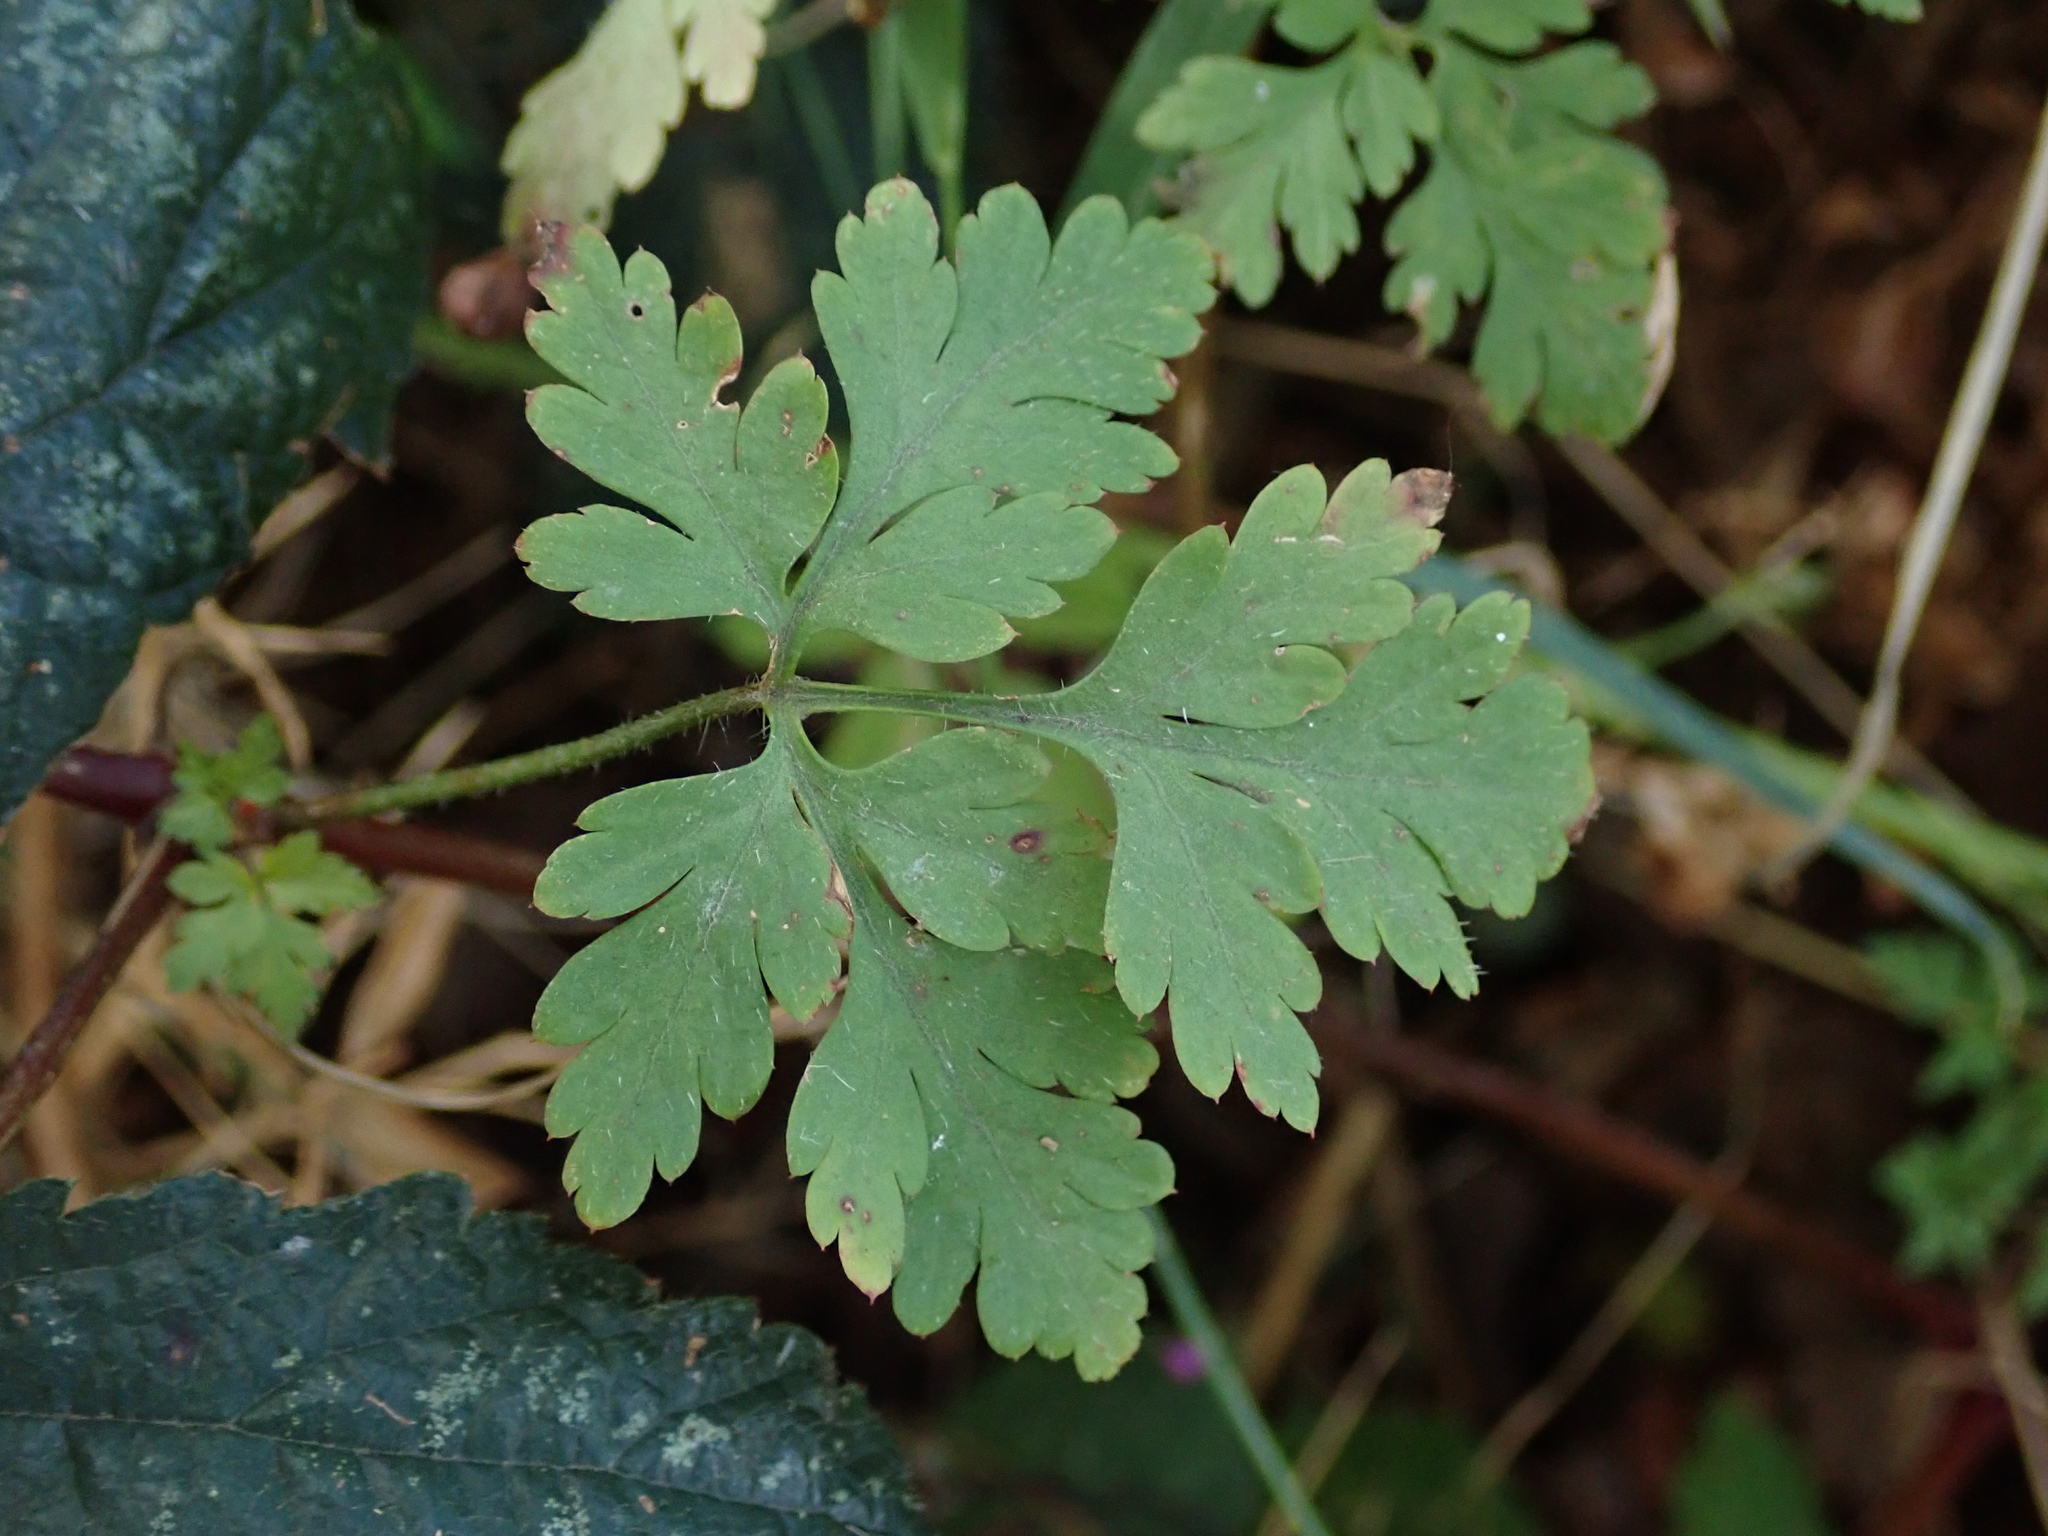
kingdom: Plantae
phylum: Tracheophyta
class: Magnoliopsida
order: Geraniales
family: Geraniaceae
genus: Geranium
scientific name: Geranium robertianum
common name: Herb-robert
